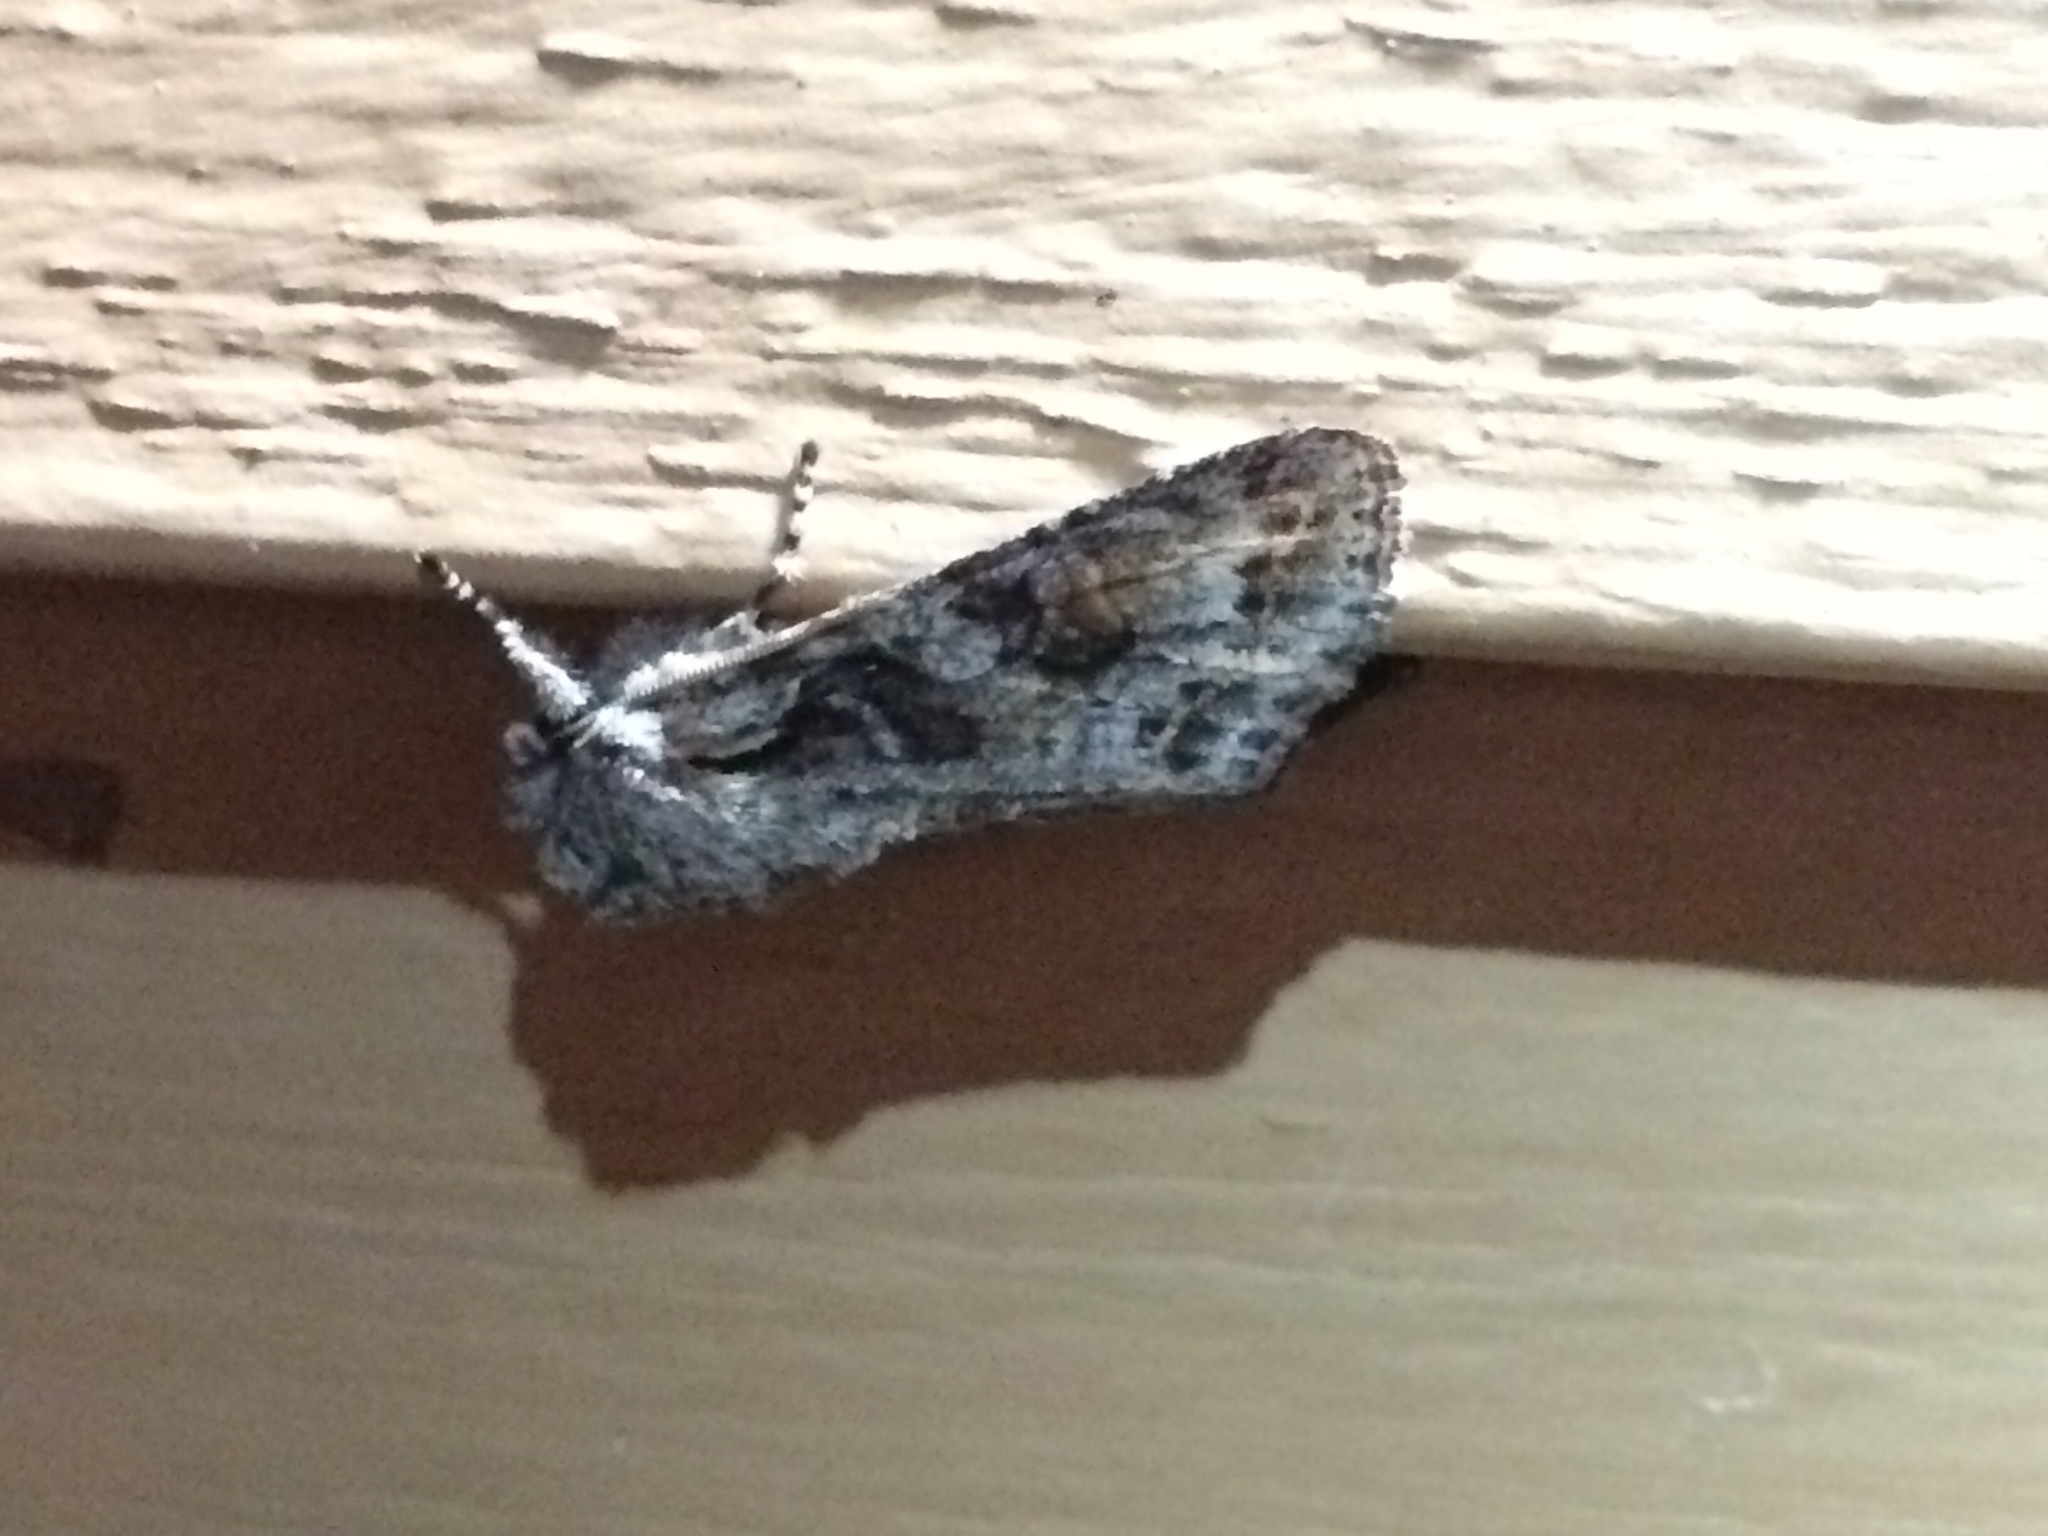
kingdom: Animalia
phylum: Arthropoda
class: Insecta
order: Lepidoptera
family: Noctuidae
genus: Egira
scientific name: Egira hiemalis
